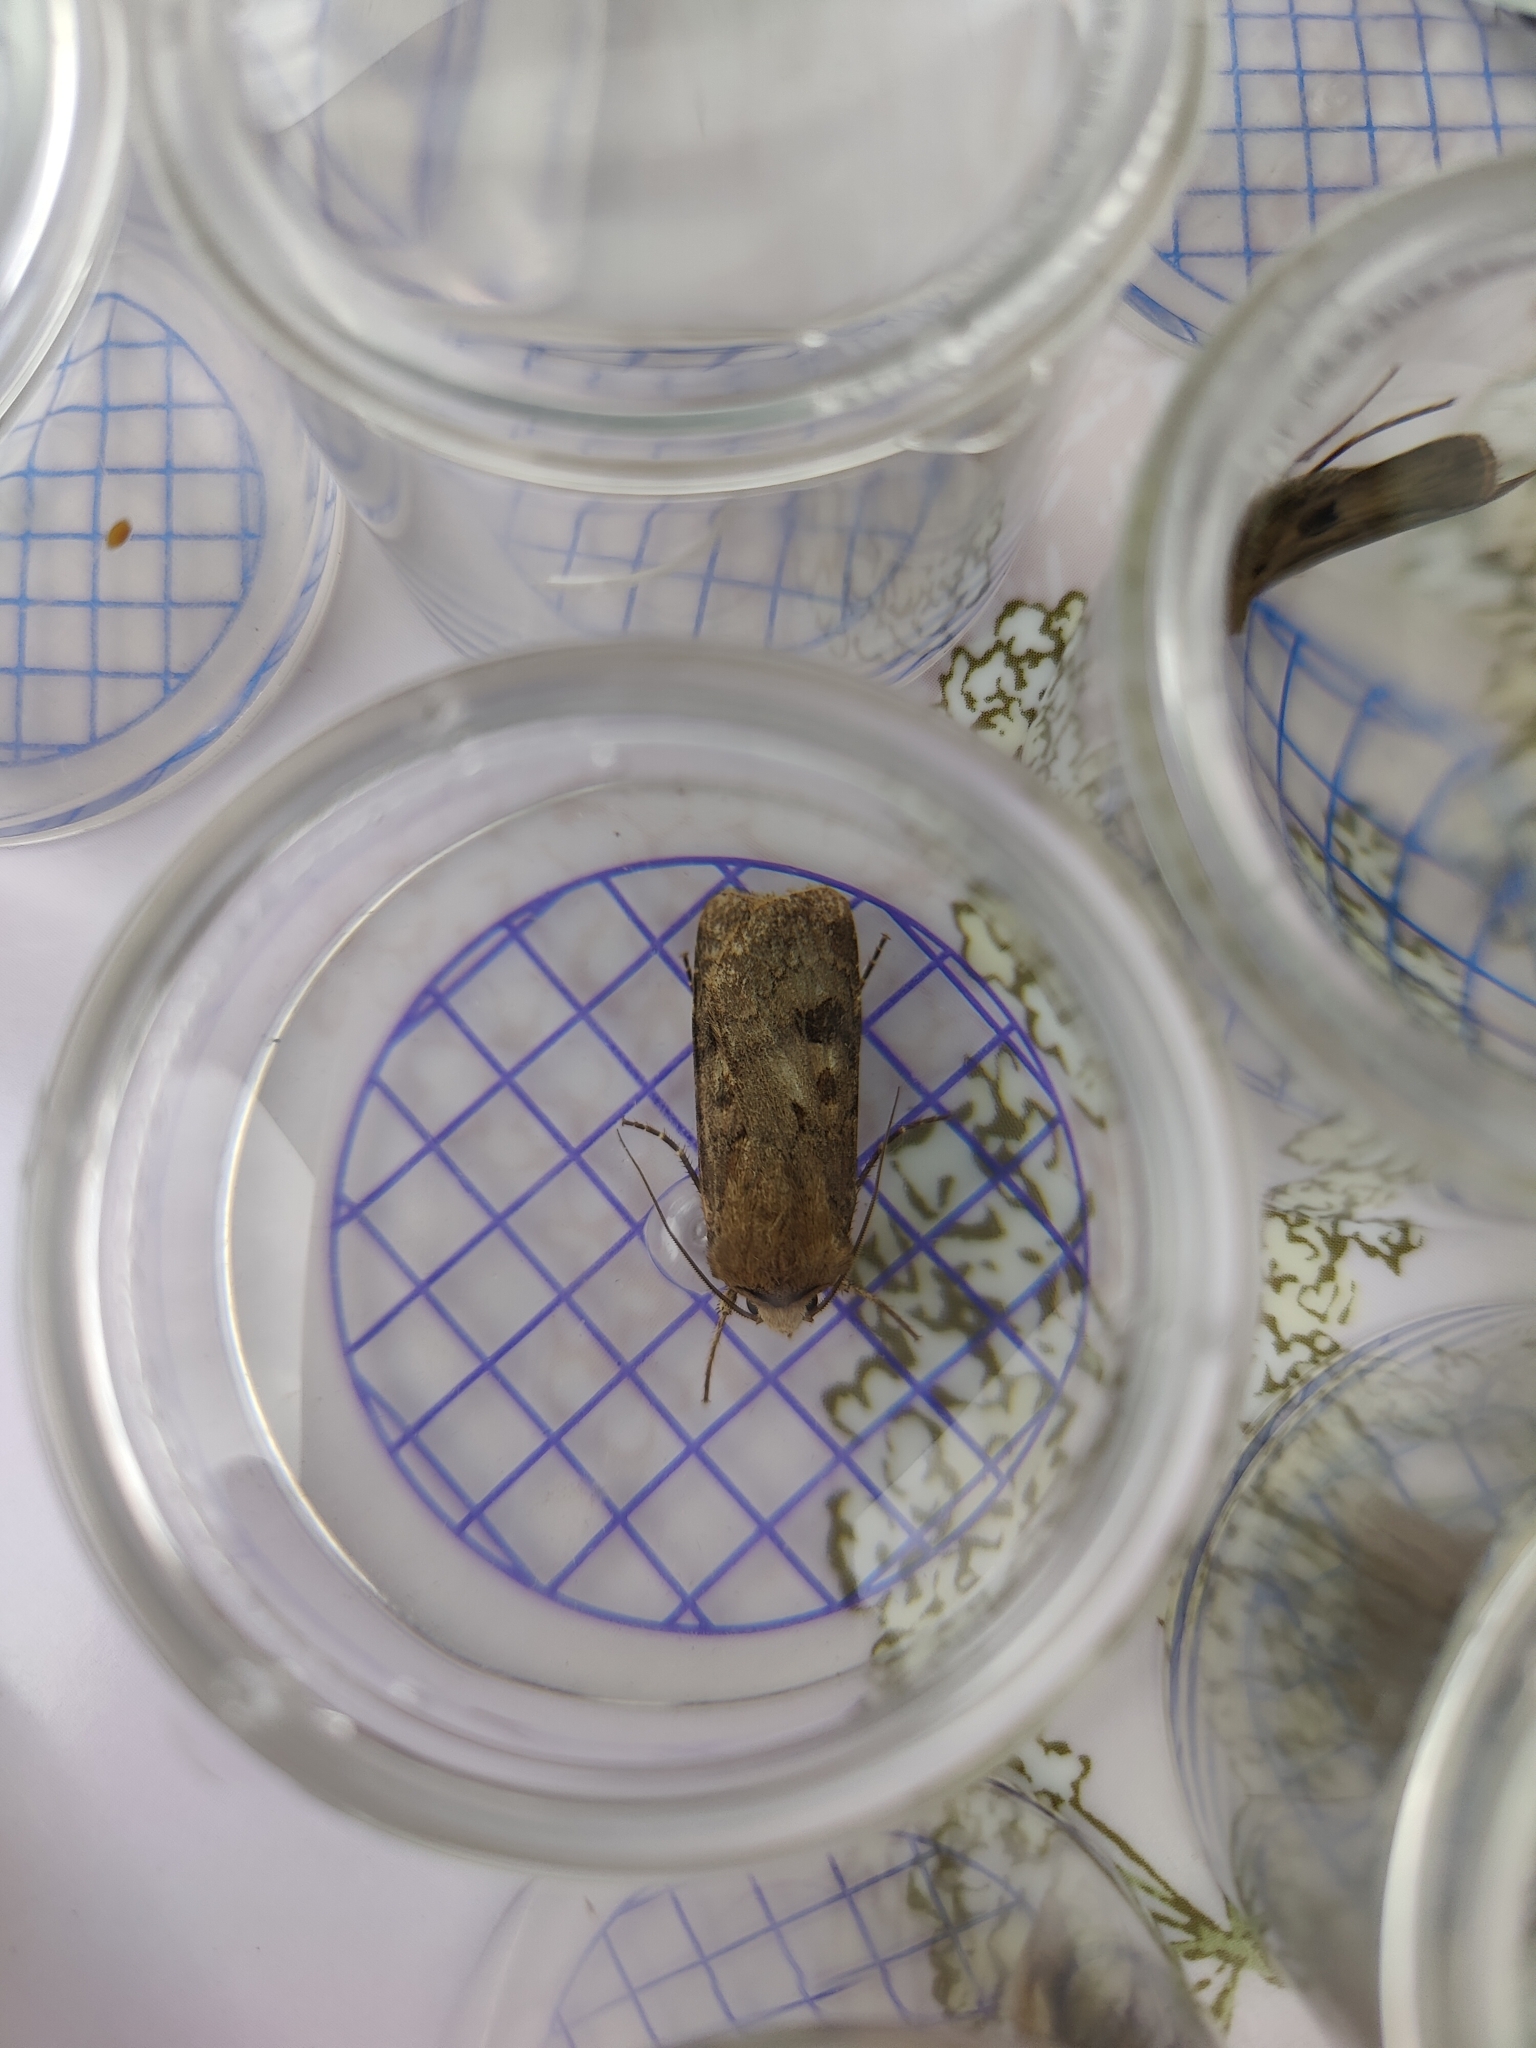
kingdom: Animalia
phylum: Arthropoda
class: Insecta
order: Lepidoptera
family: Noctuidae
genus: Agrotis
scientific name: Agrotis exclamationis
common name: Heart and dart
